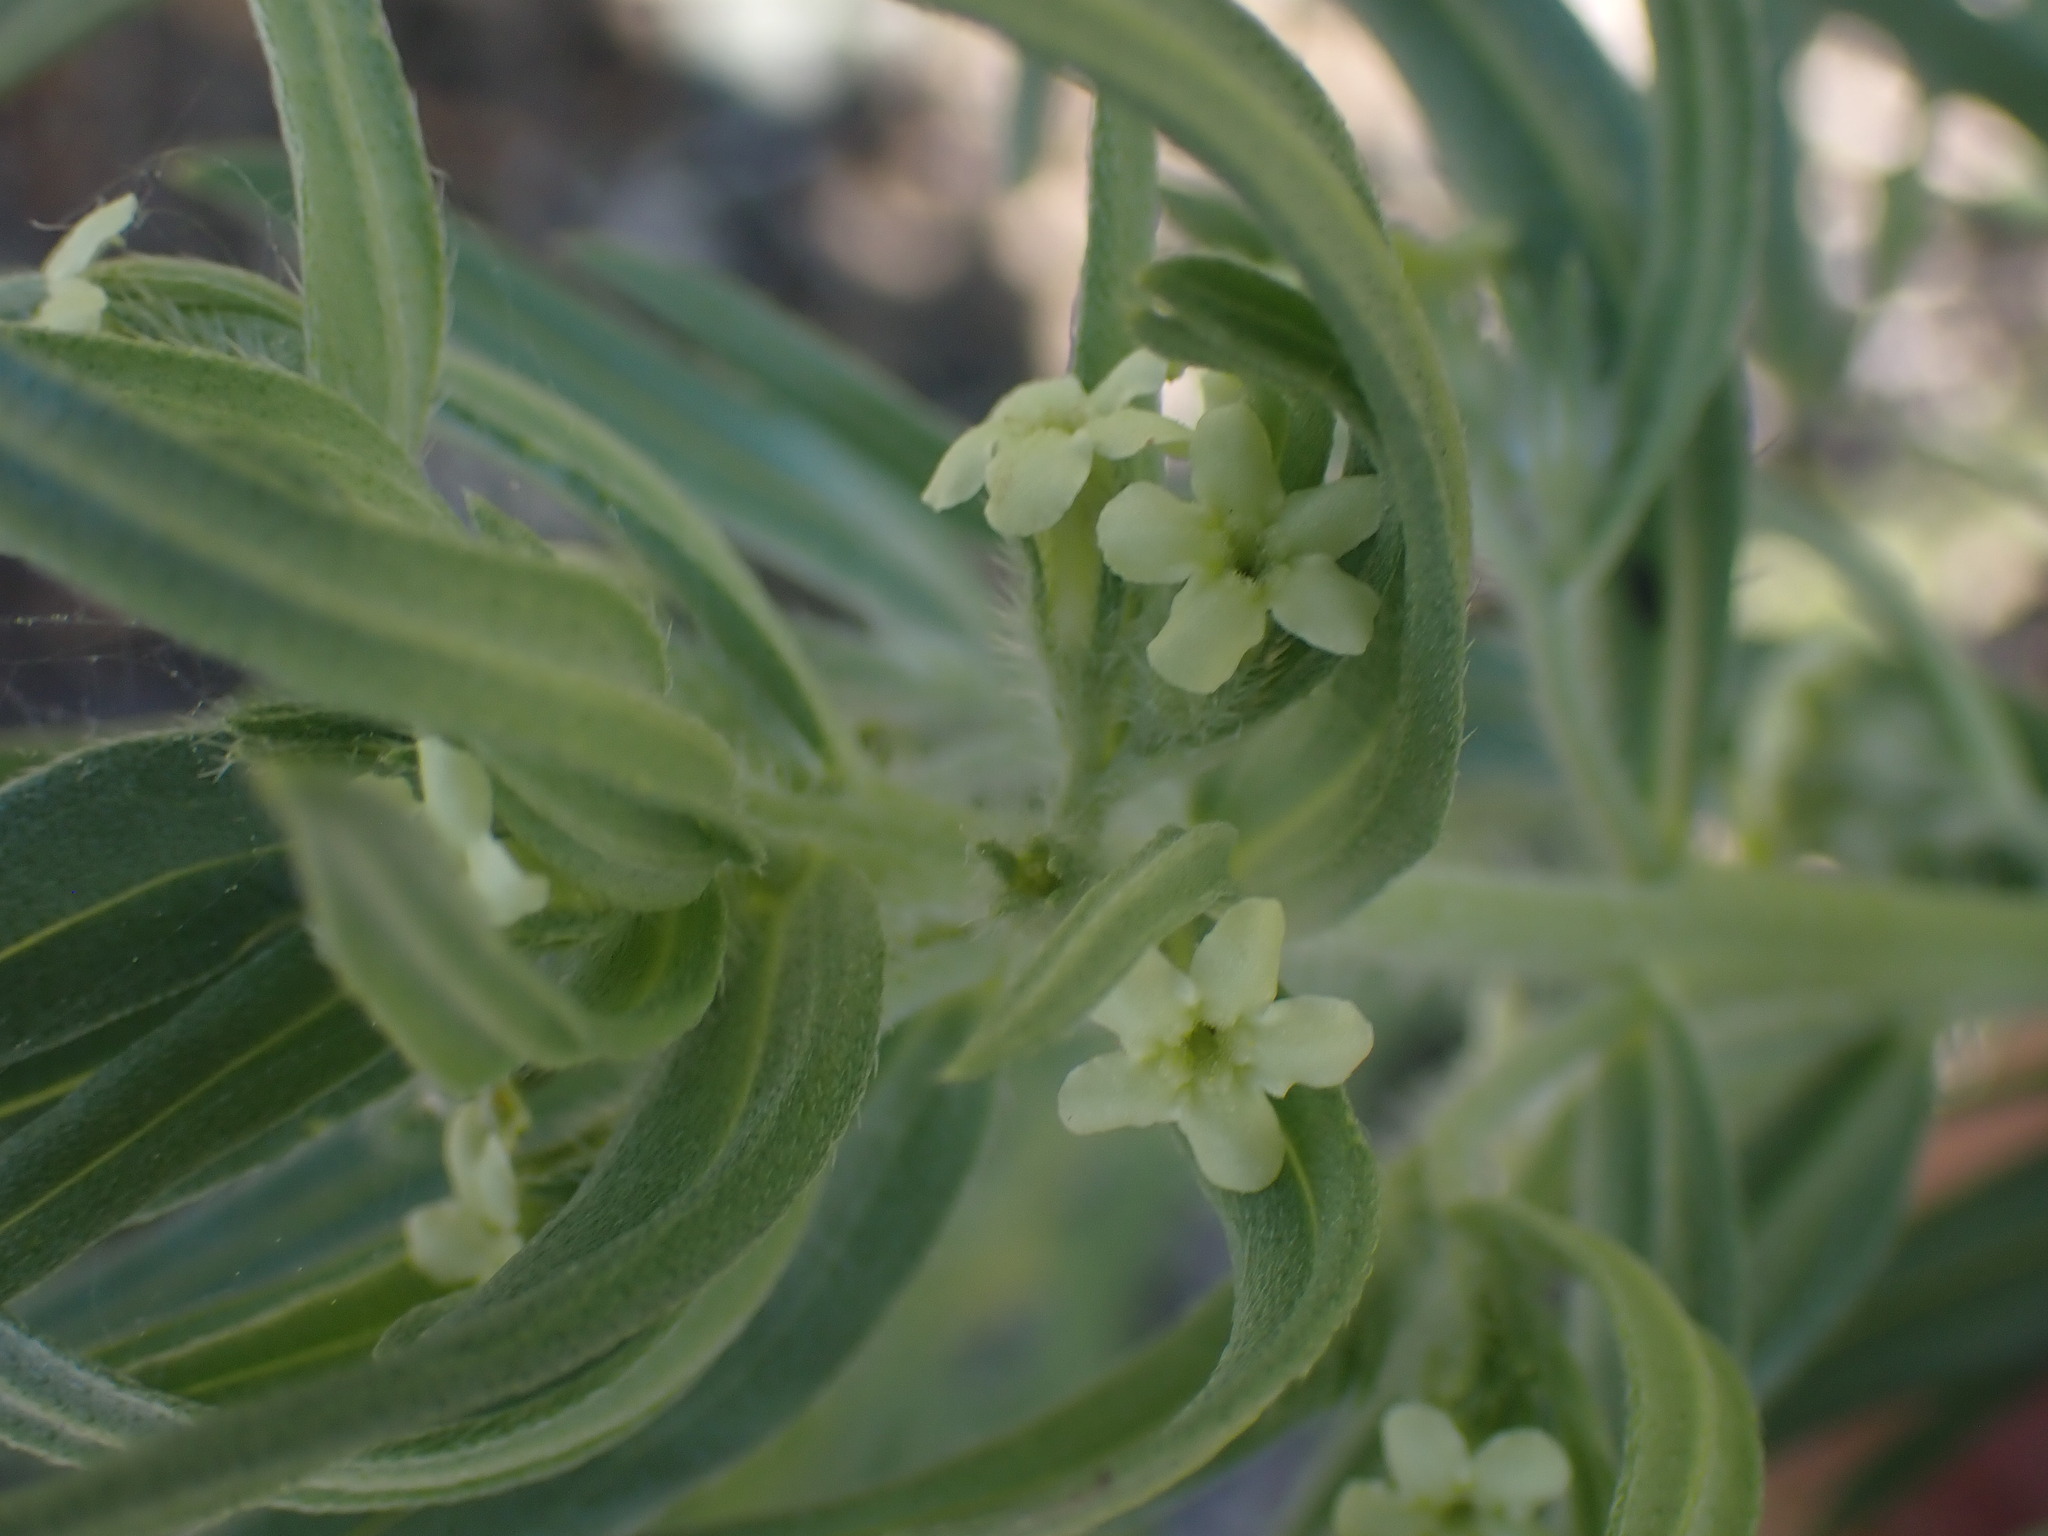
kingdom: Plantae
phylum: Tracheophyta
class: Magnoliopsida
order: Boraginales
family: Boraginaceae
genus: Lithospermum
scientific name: Lithospermum ruderale
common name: Western gromwell
